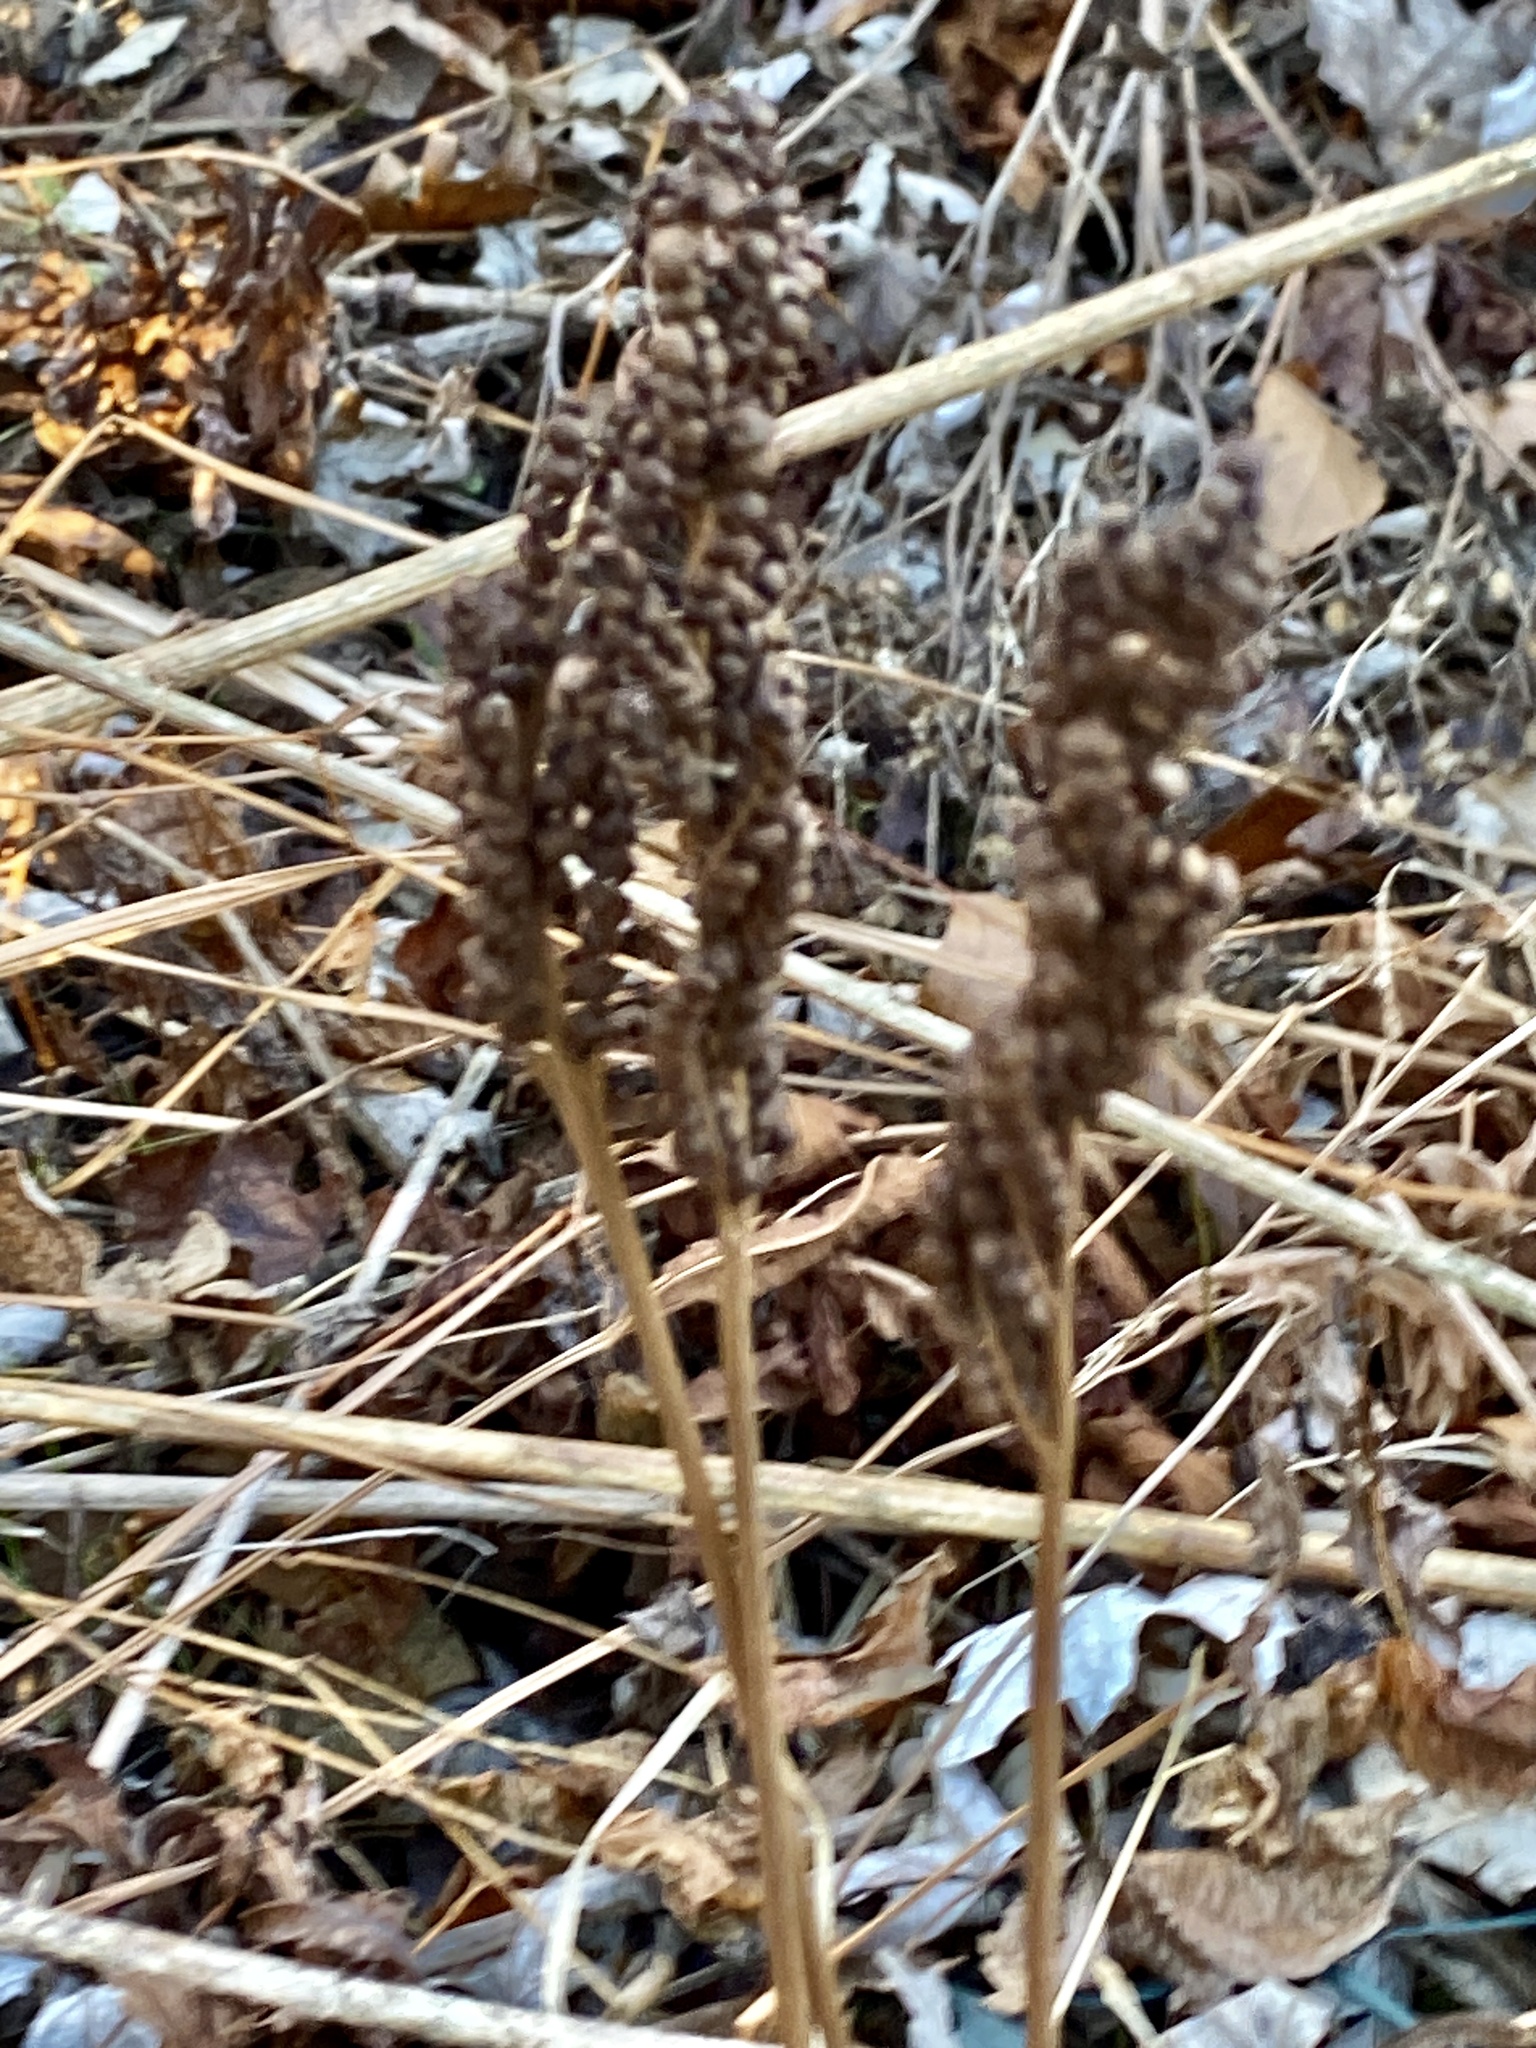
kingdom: Plantae
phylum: Tracheophyta
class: Polypodiopsida
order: Polypodiales
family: Onocleaceae
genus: Onoclea
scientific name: Onoclea sensibilis
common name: Sensitive fern
